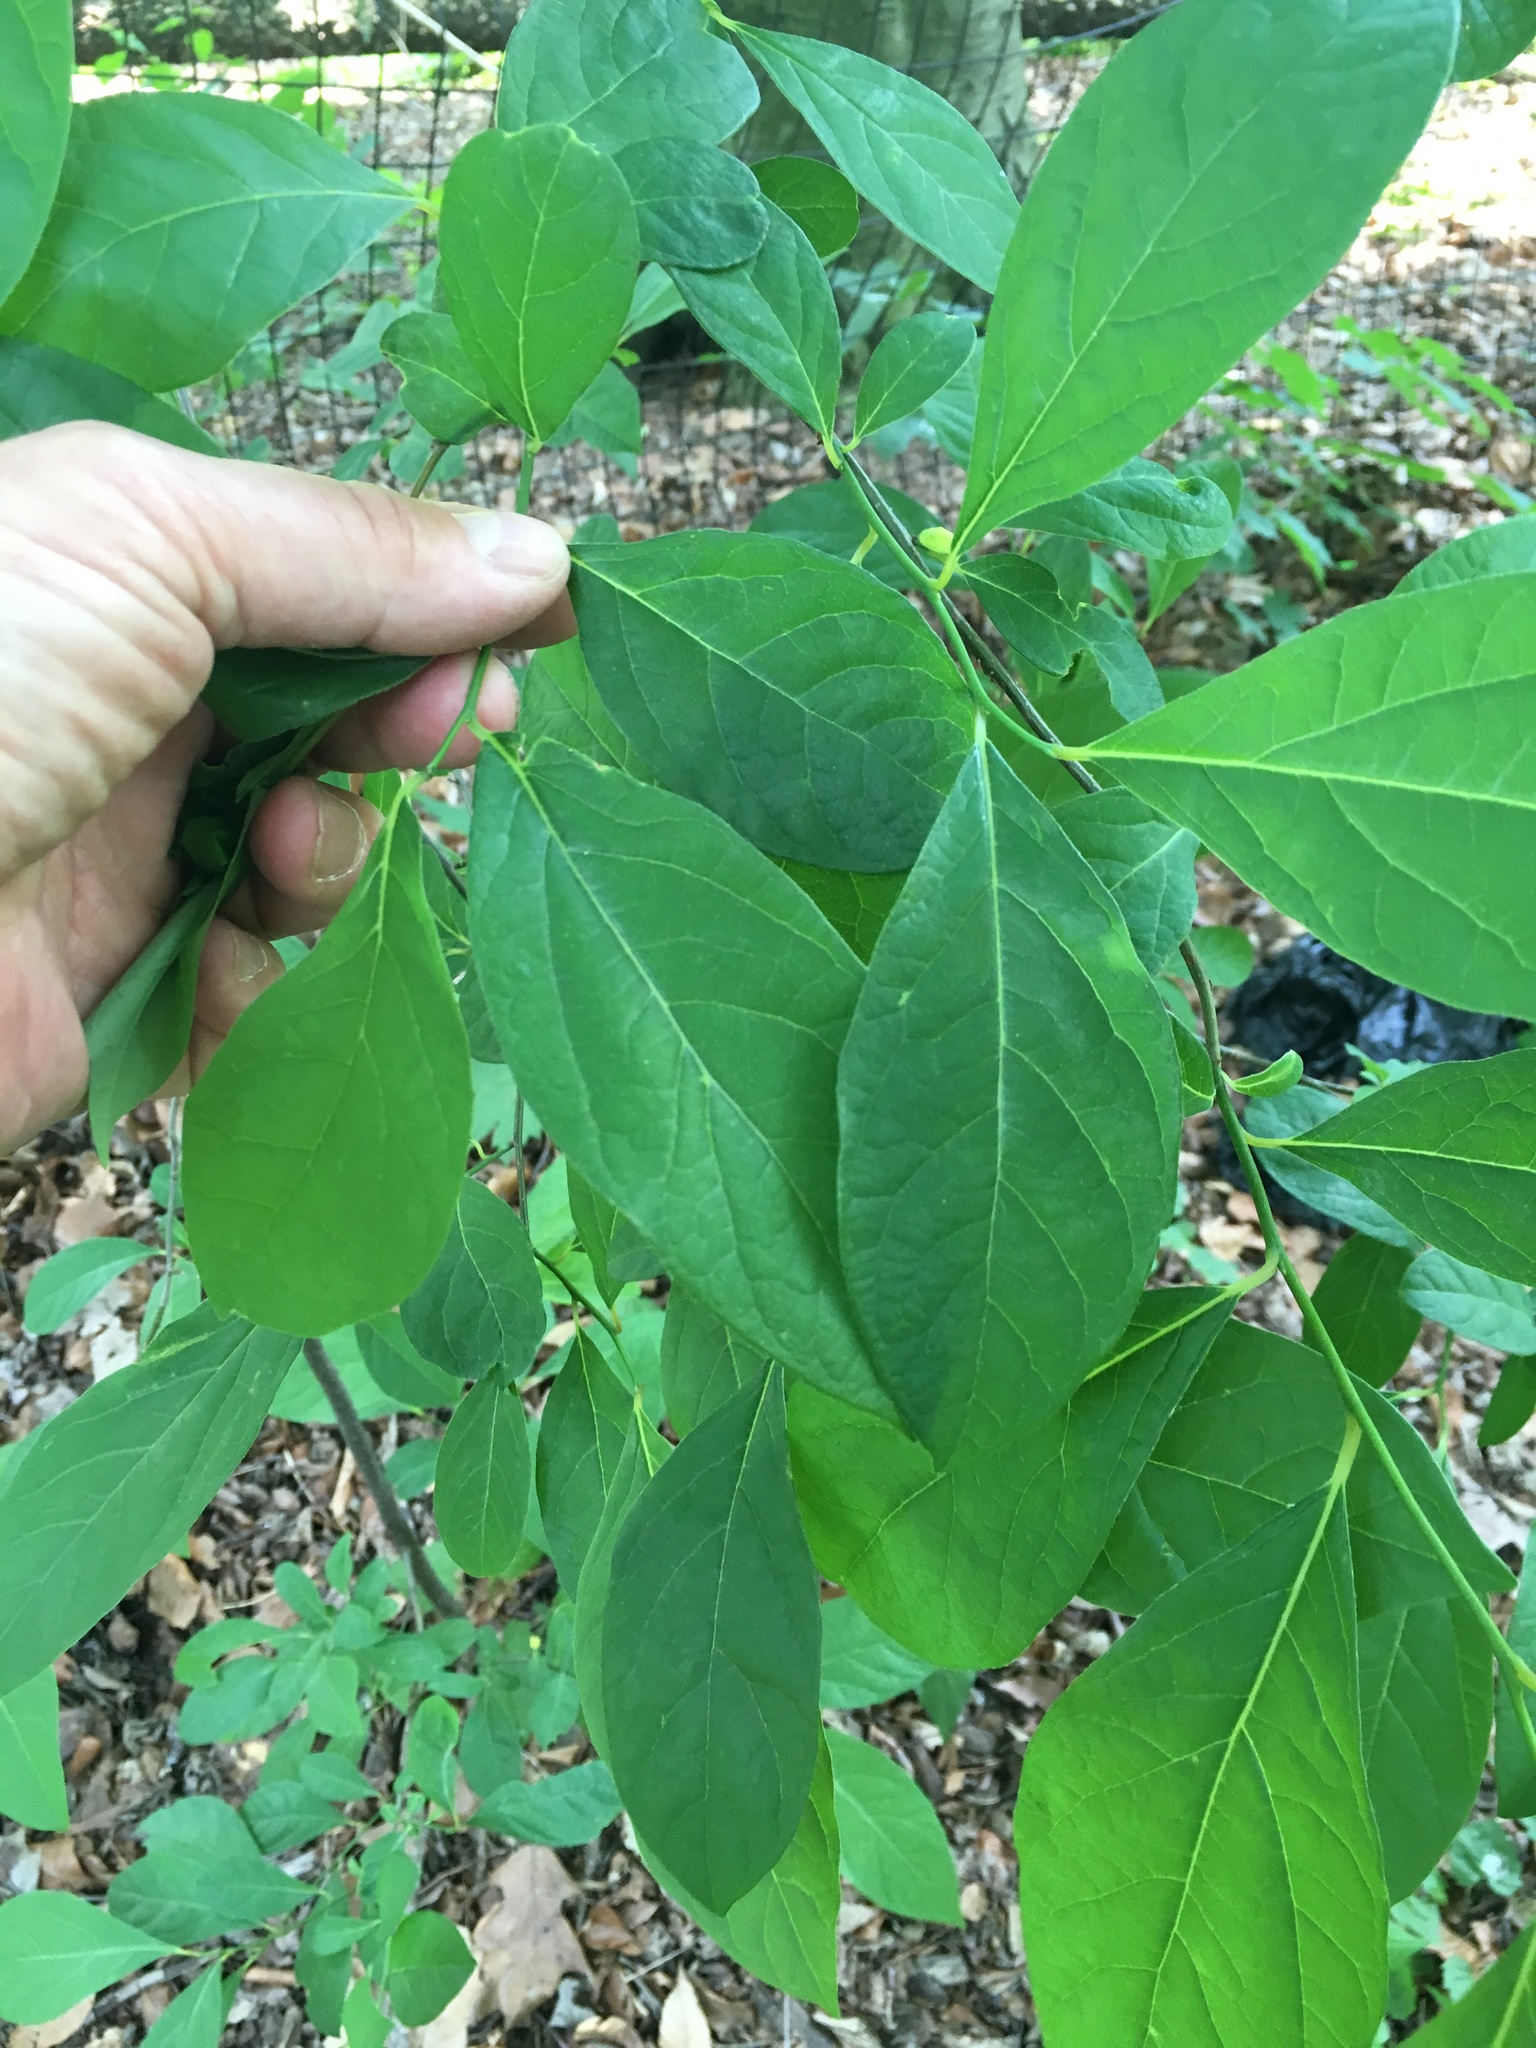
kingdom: Plantae
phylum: Tracheophyta
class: Magnoliopsida
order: Laurales
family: Lauraceae
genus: Lindera
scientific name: Lindera benzoin
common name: Spicebush
